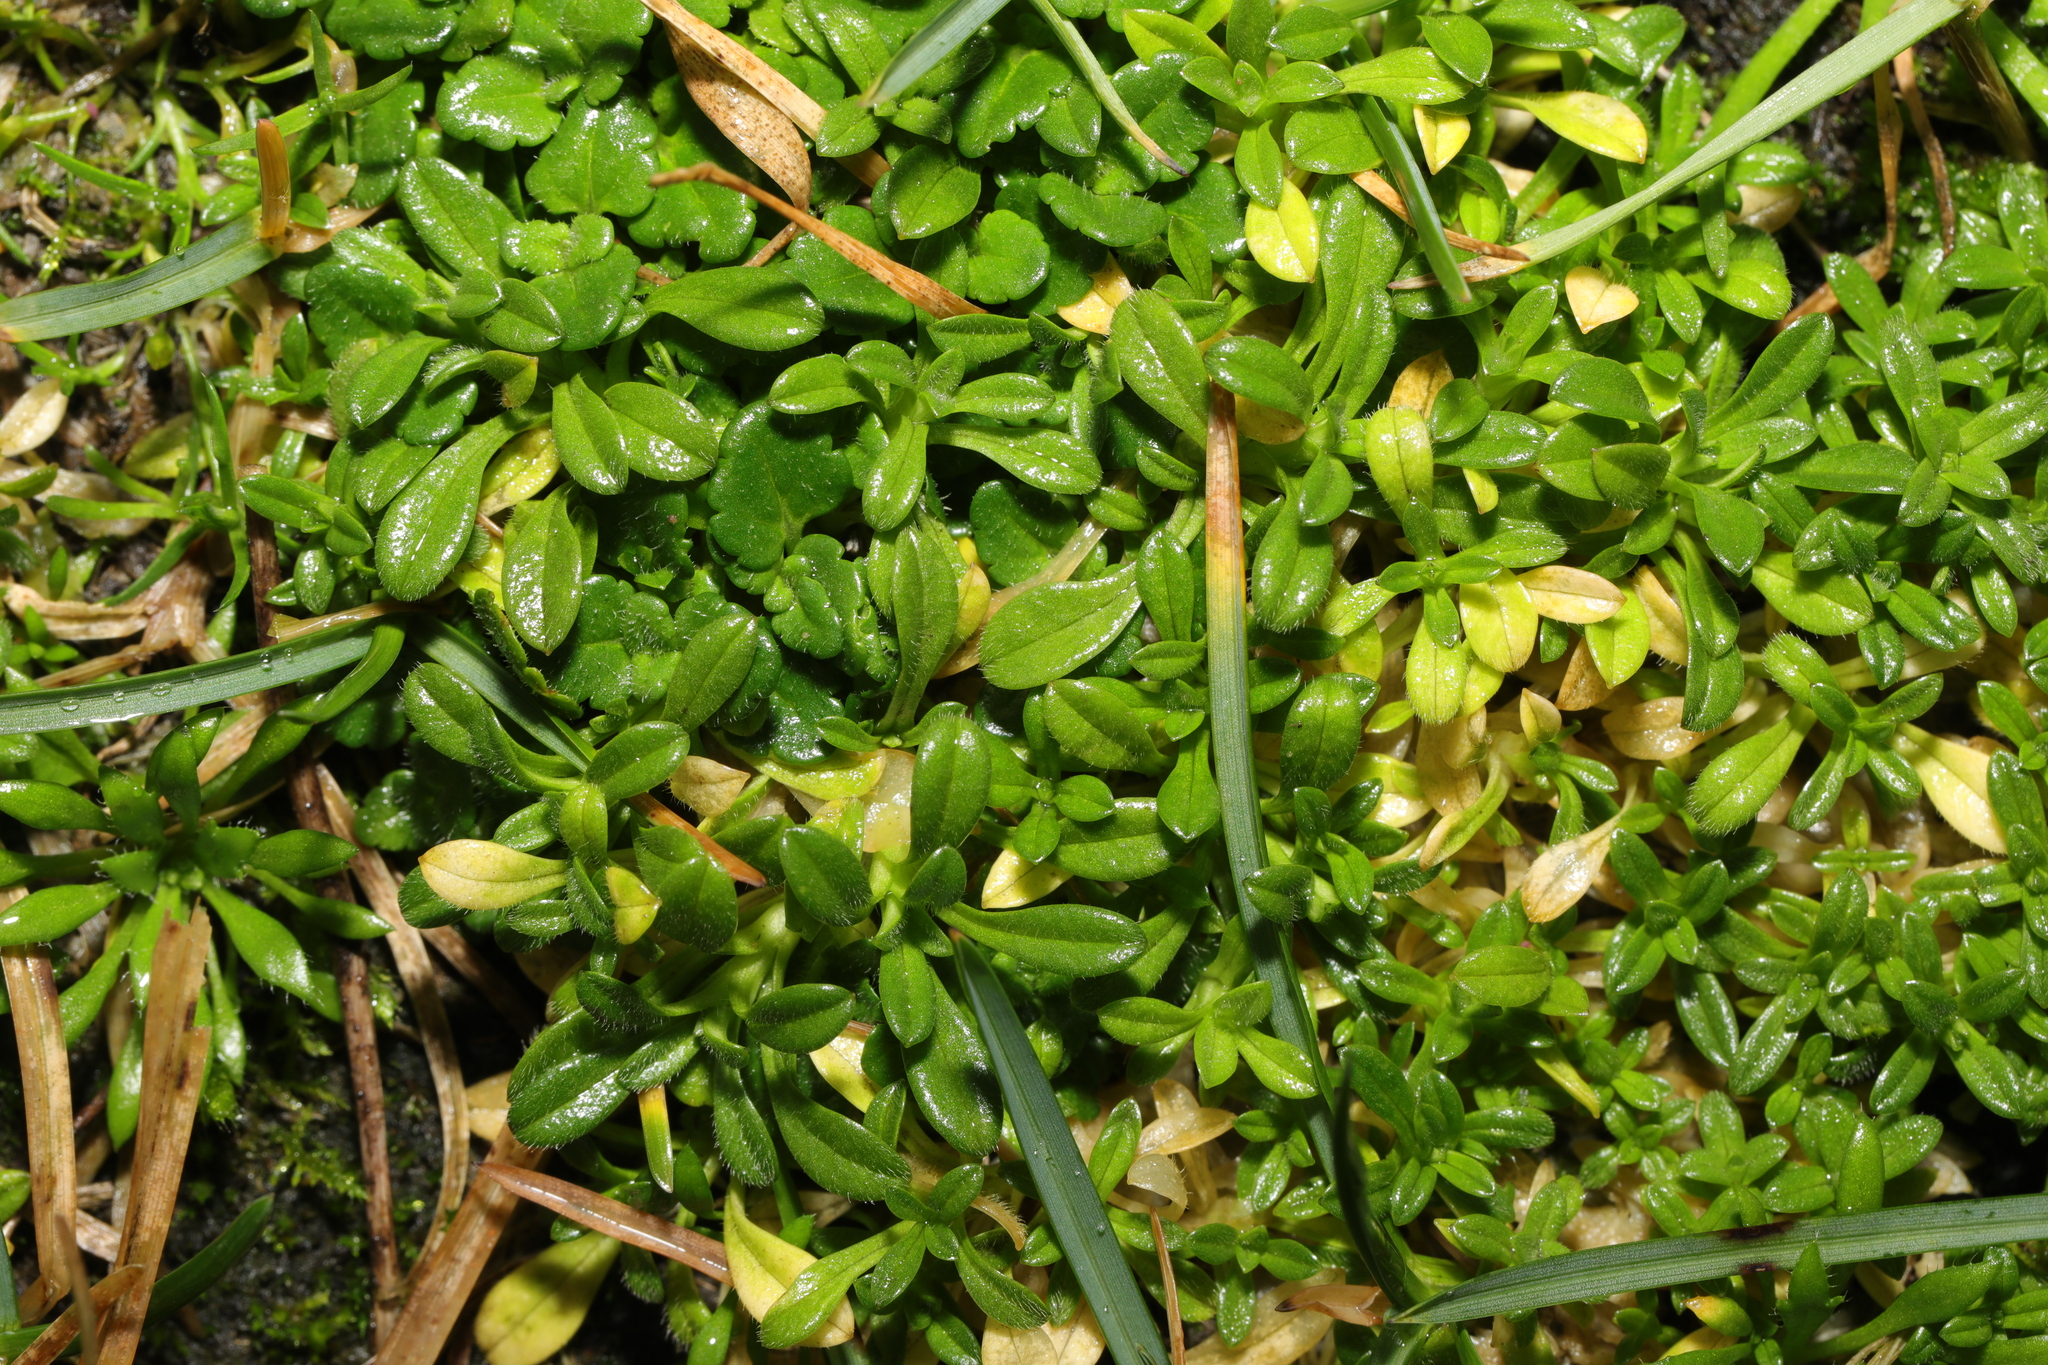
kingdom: Plantae
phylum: Tracheophyta
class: Magnoliopsida
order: Caryophyllales
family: Caryophyllaceae
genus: Cerastium
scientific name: Cerastium fontanum
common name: Common mouse-ear
